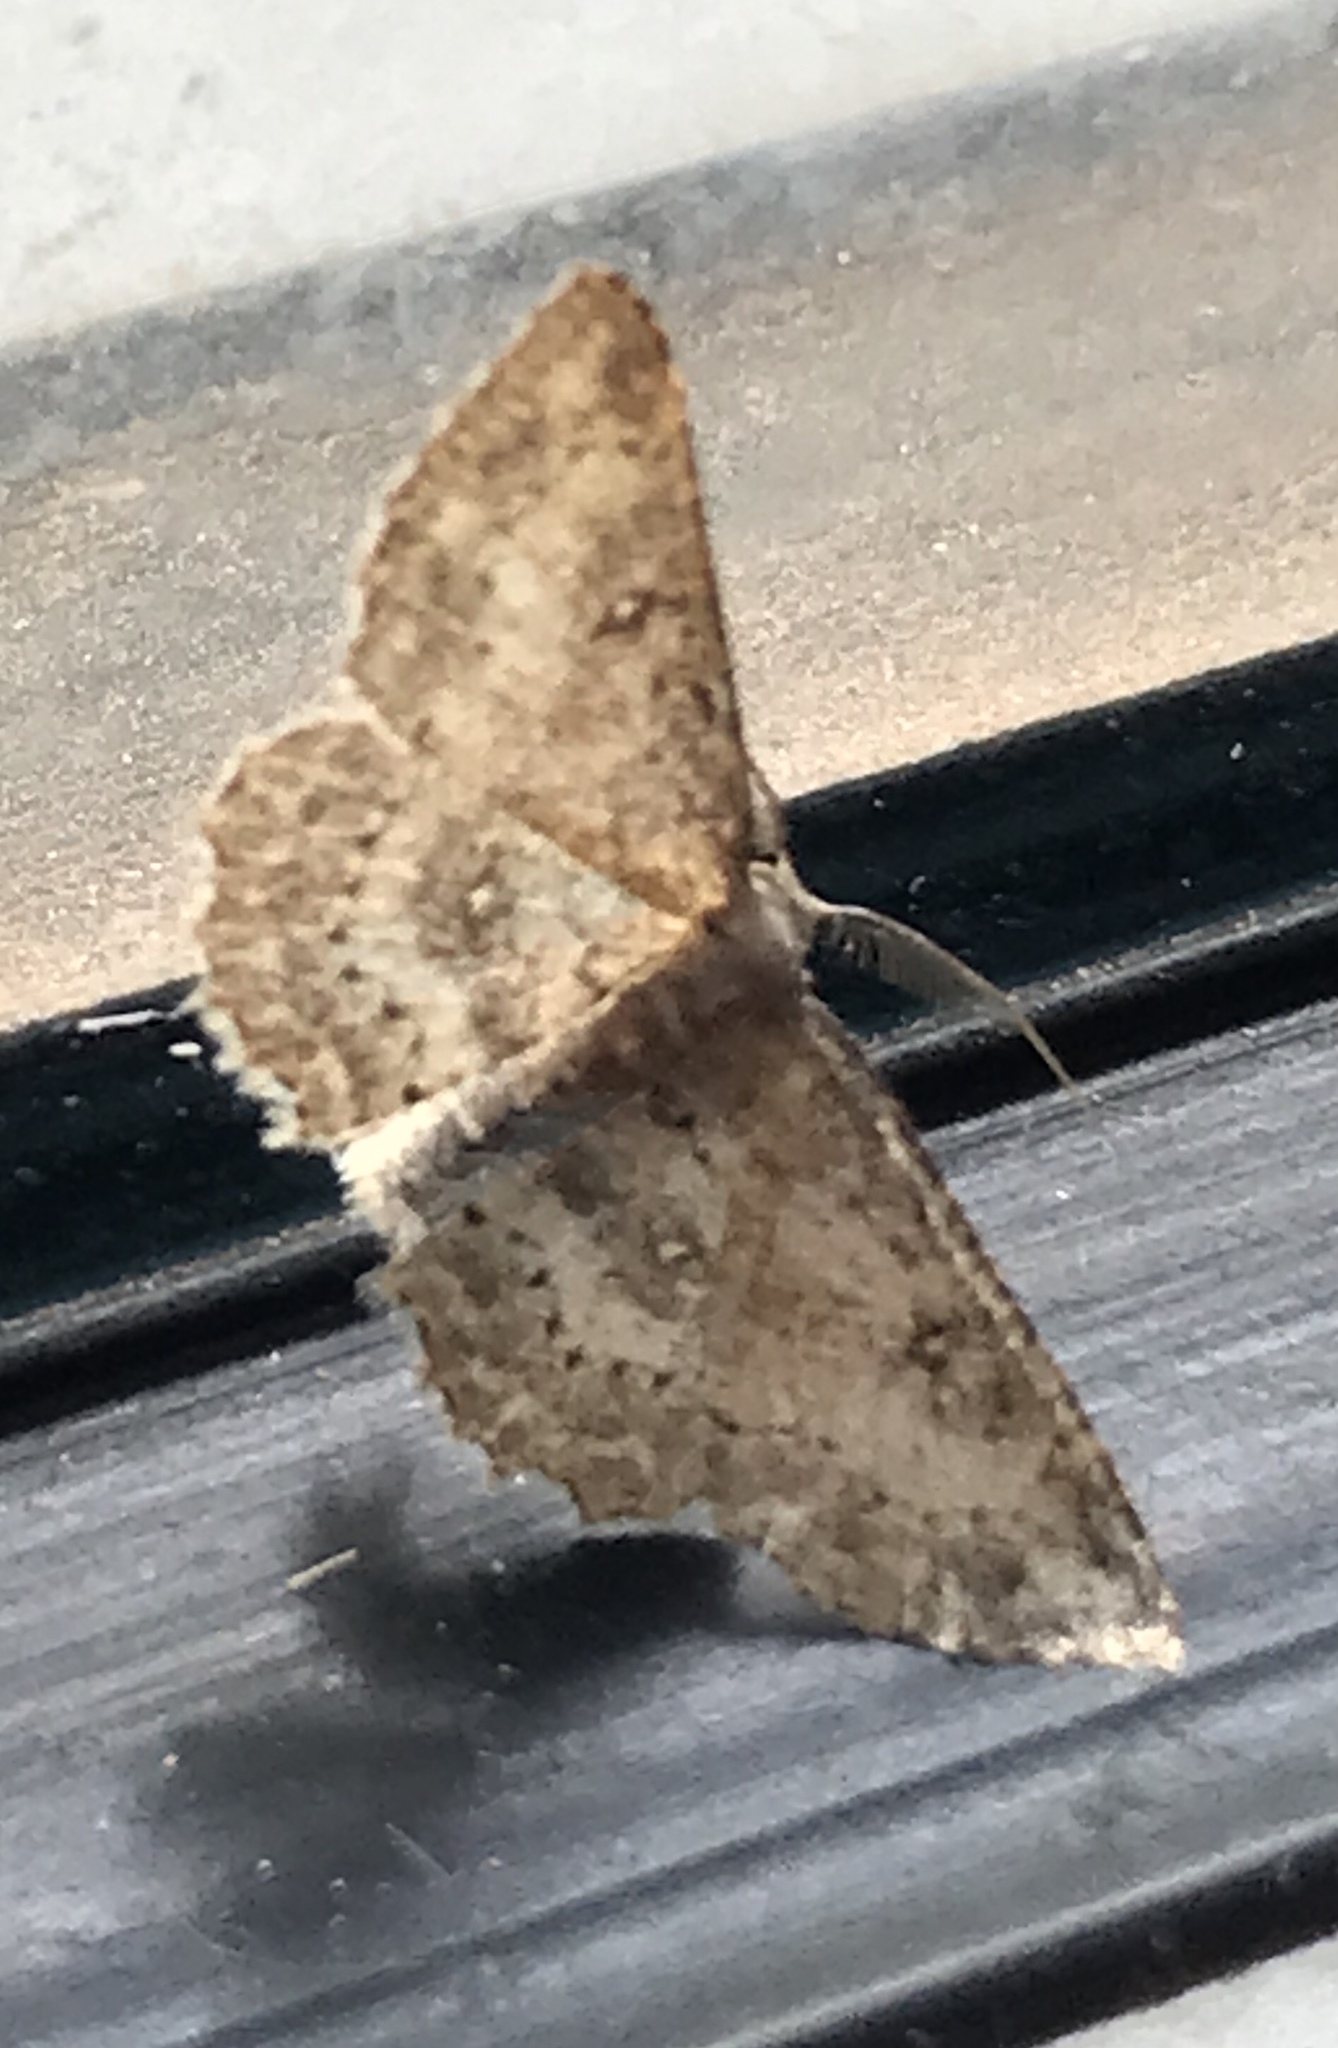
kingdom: Animalia
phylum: Arthropoda
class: Insecta
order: Lepidoptera
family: Geometridae
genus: Cyclophora
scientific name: Cyclophora nanaria
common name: Cankerworm
